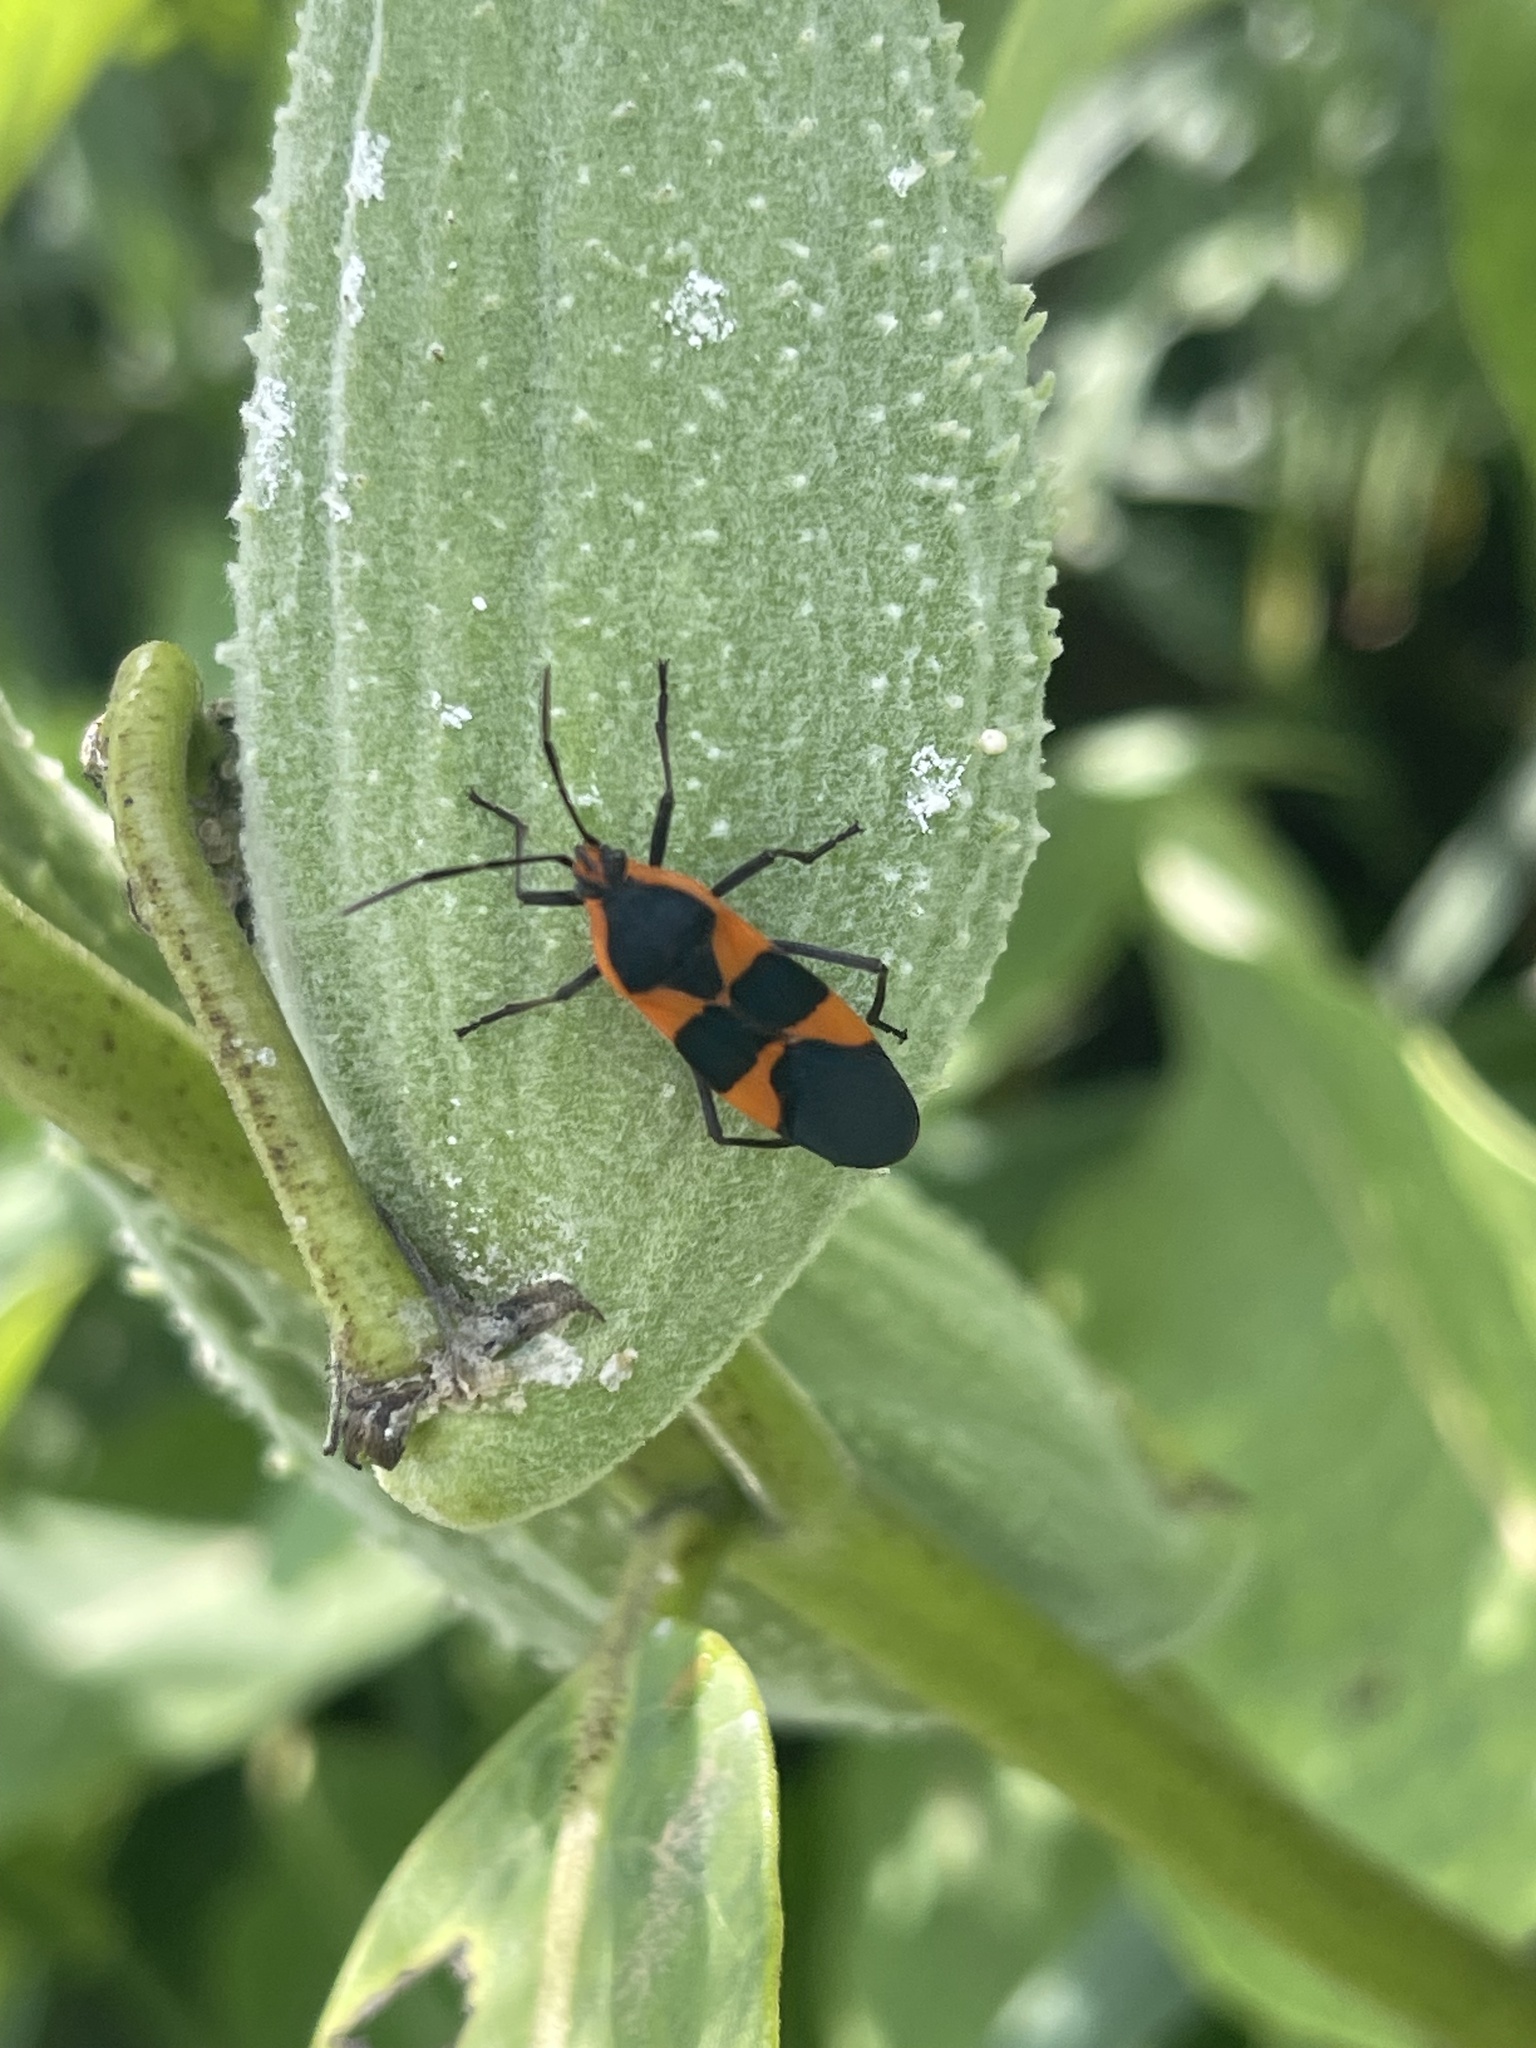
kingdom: Animalia
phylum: Arthropoda
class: Insecta
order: Hemiptera
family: Lygaeidae
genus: Oncopeltus
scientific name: Oncopeltus fasciatus
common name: Large milkweed bug
